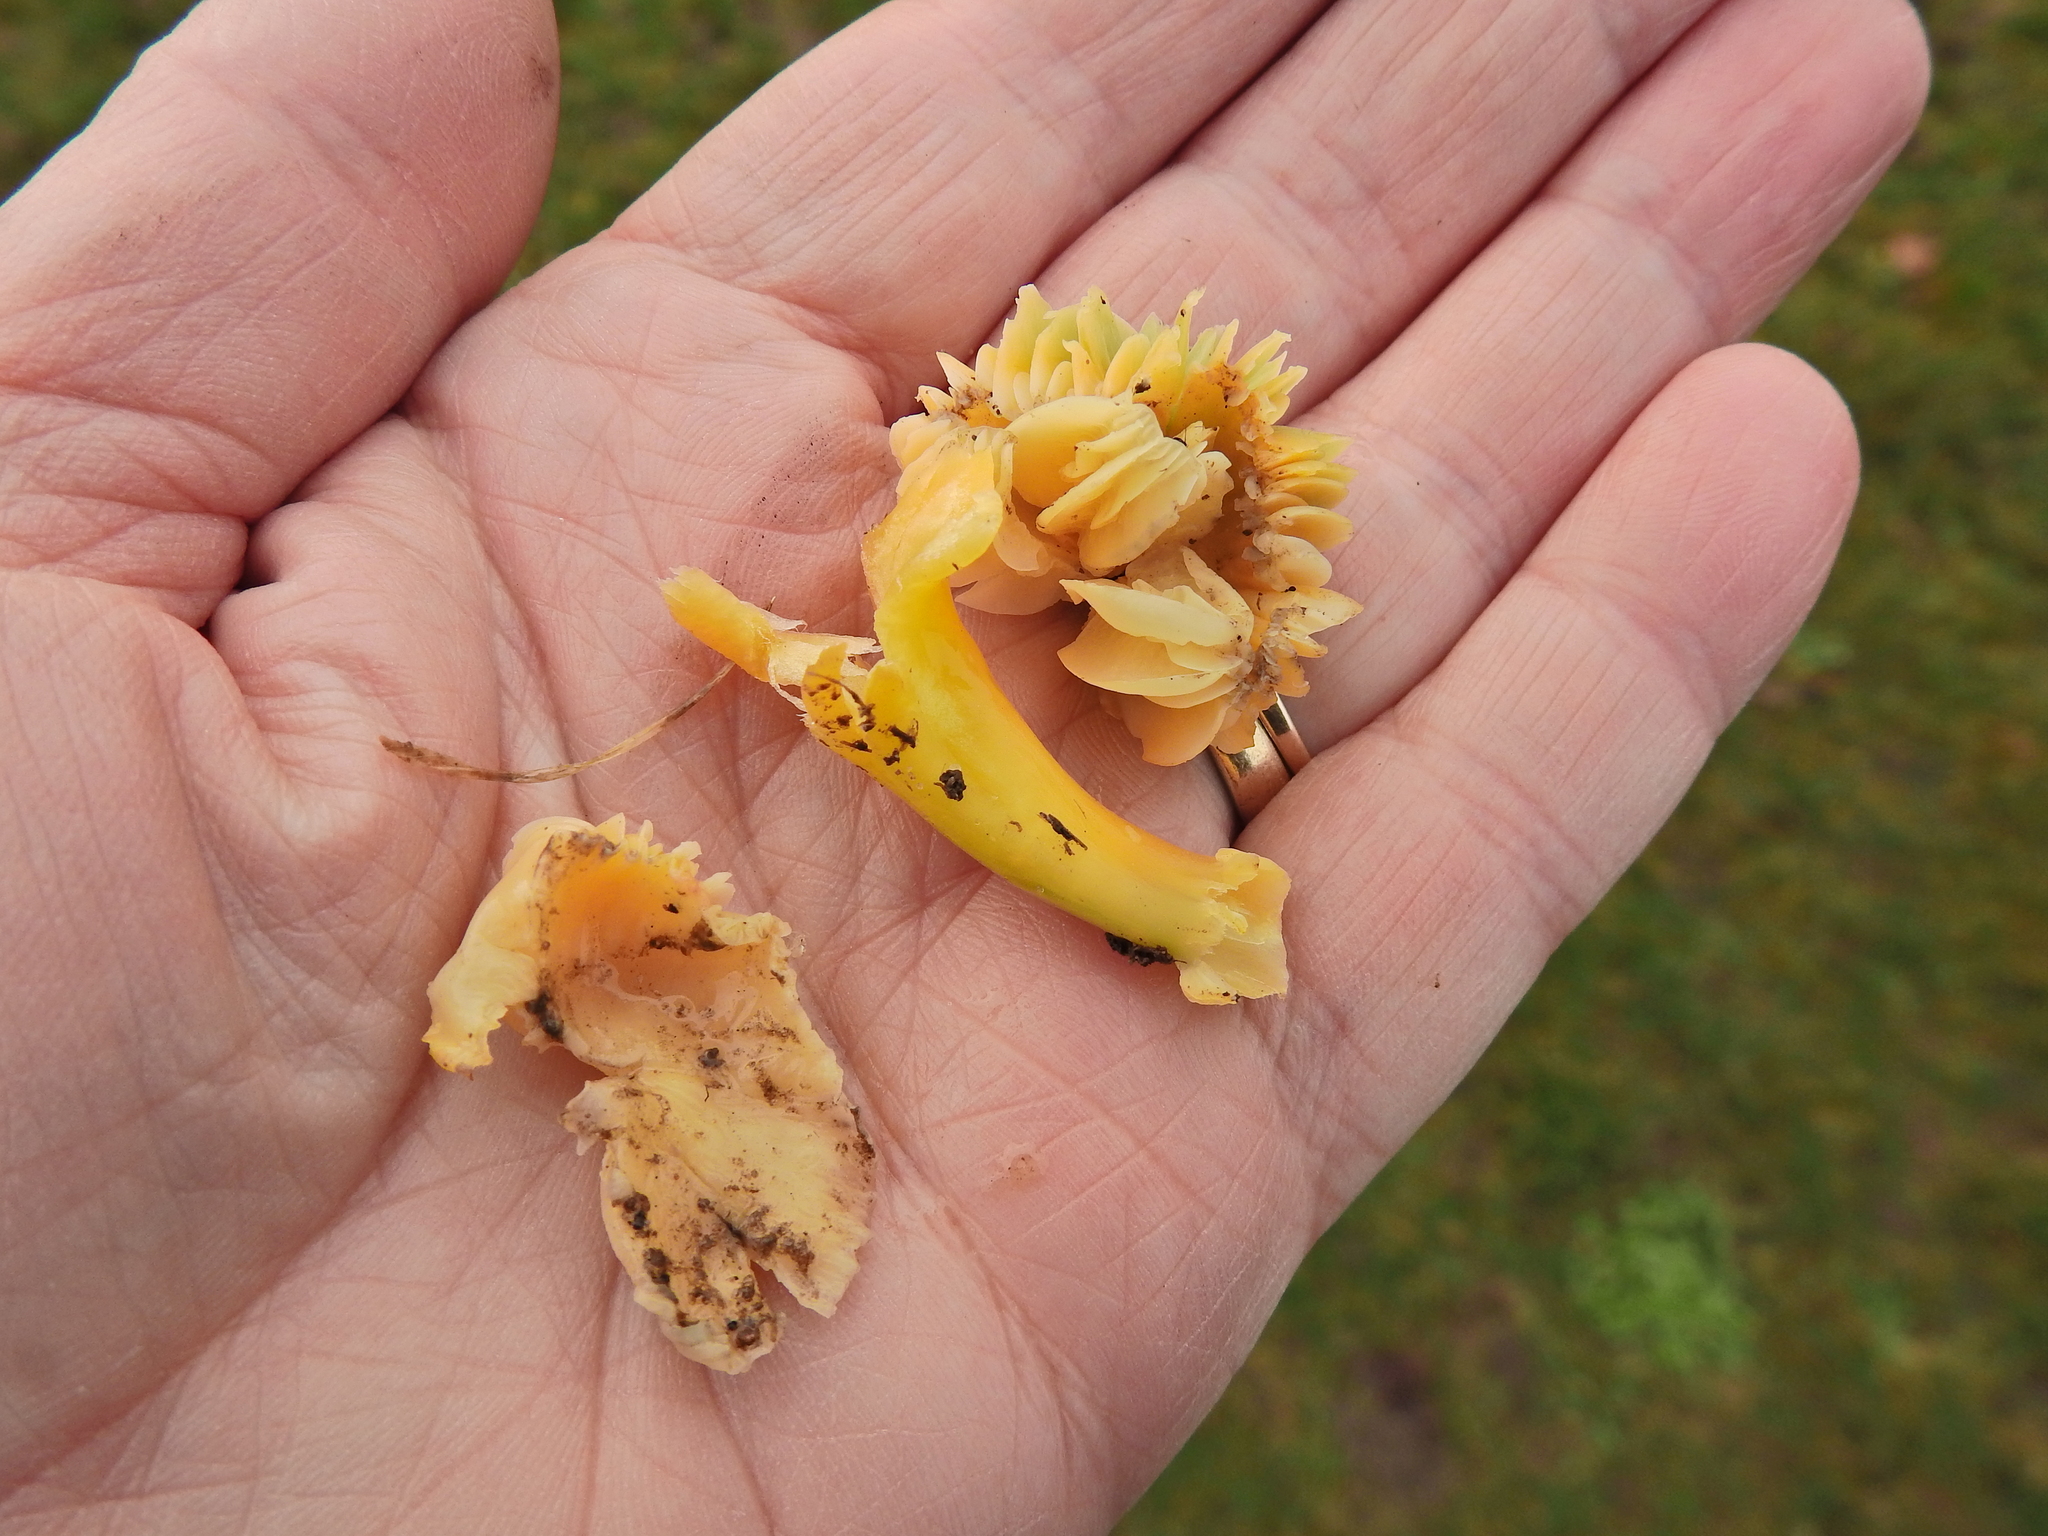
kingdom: Fungi
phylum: Basidiomycota
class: Agaricomycetes
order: Agaricales
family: Hygrophoraceae
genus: Gliophorus
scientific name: Gliophorus psittacinus
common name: Parrot wax-cap
